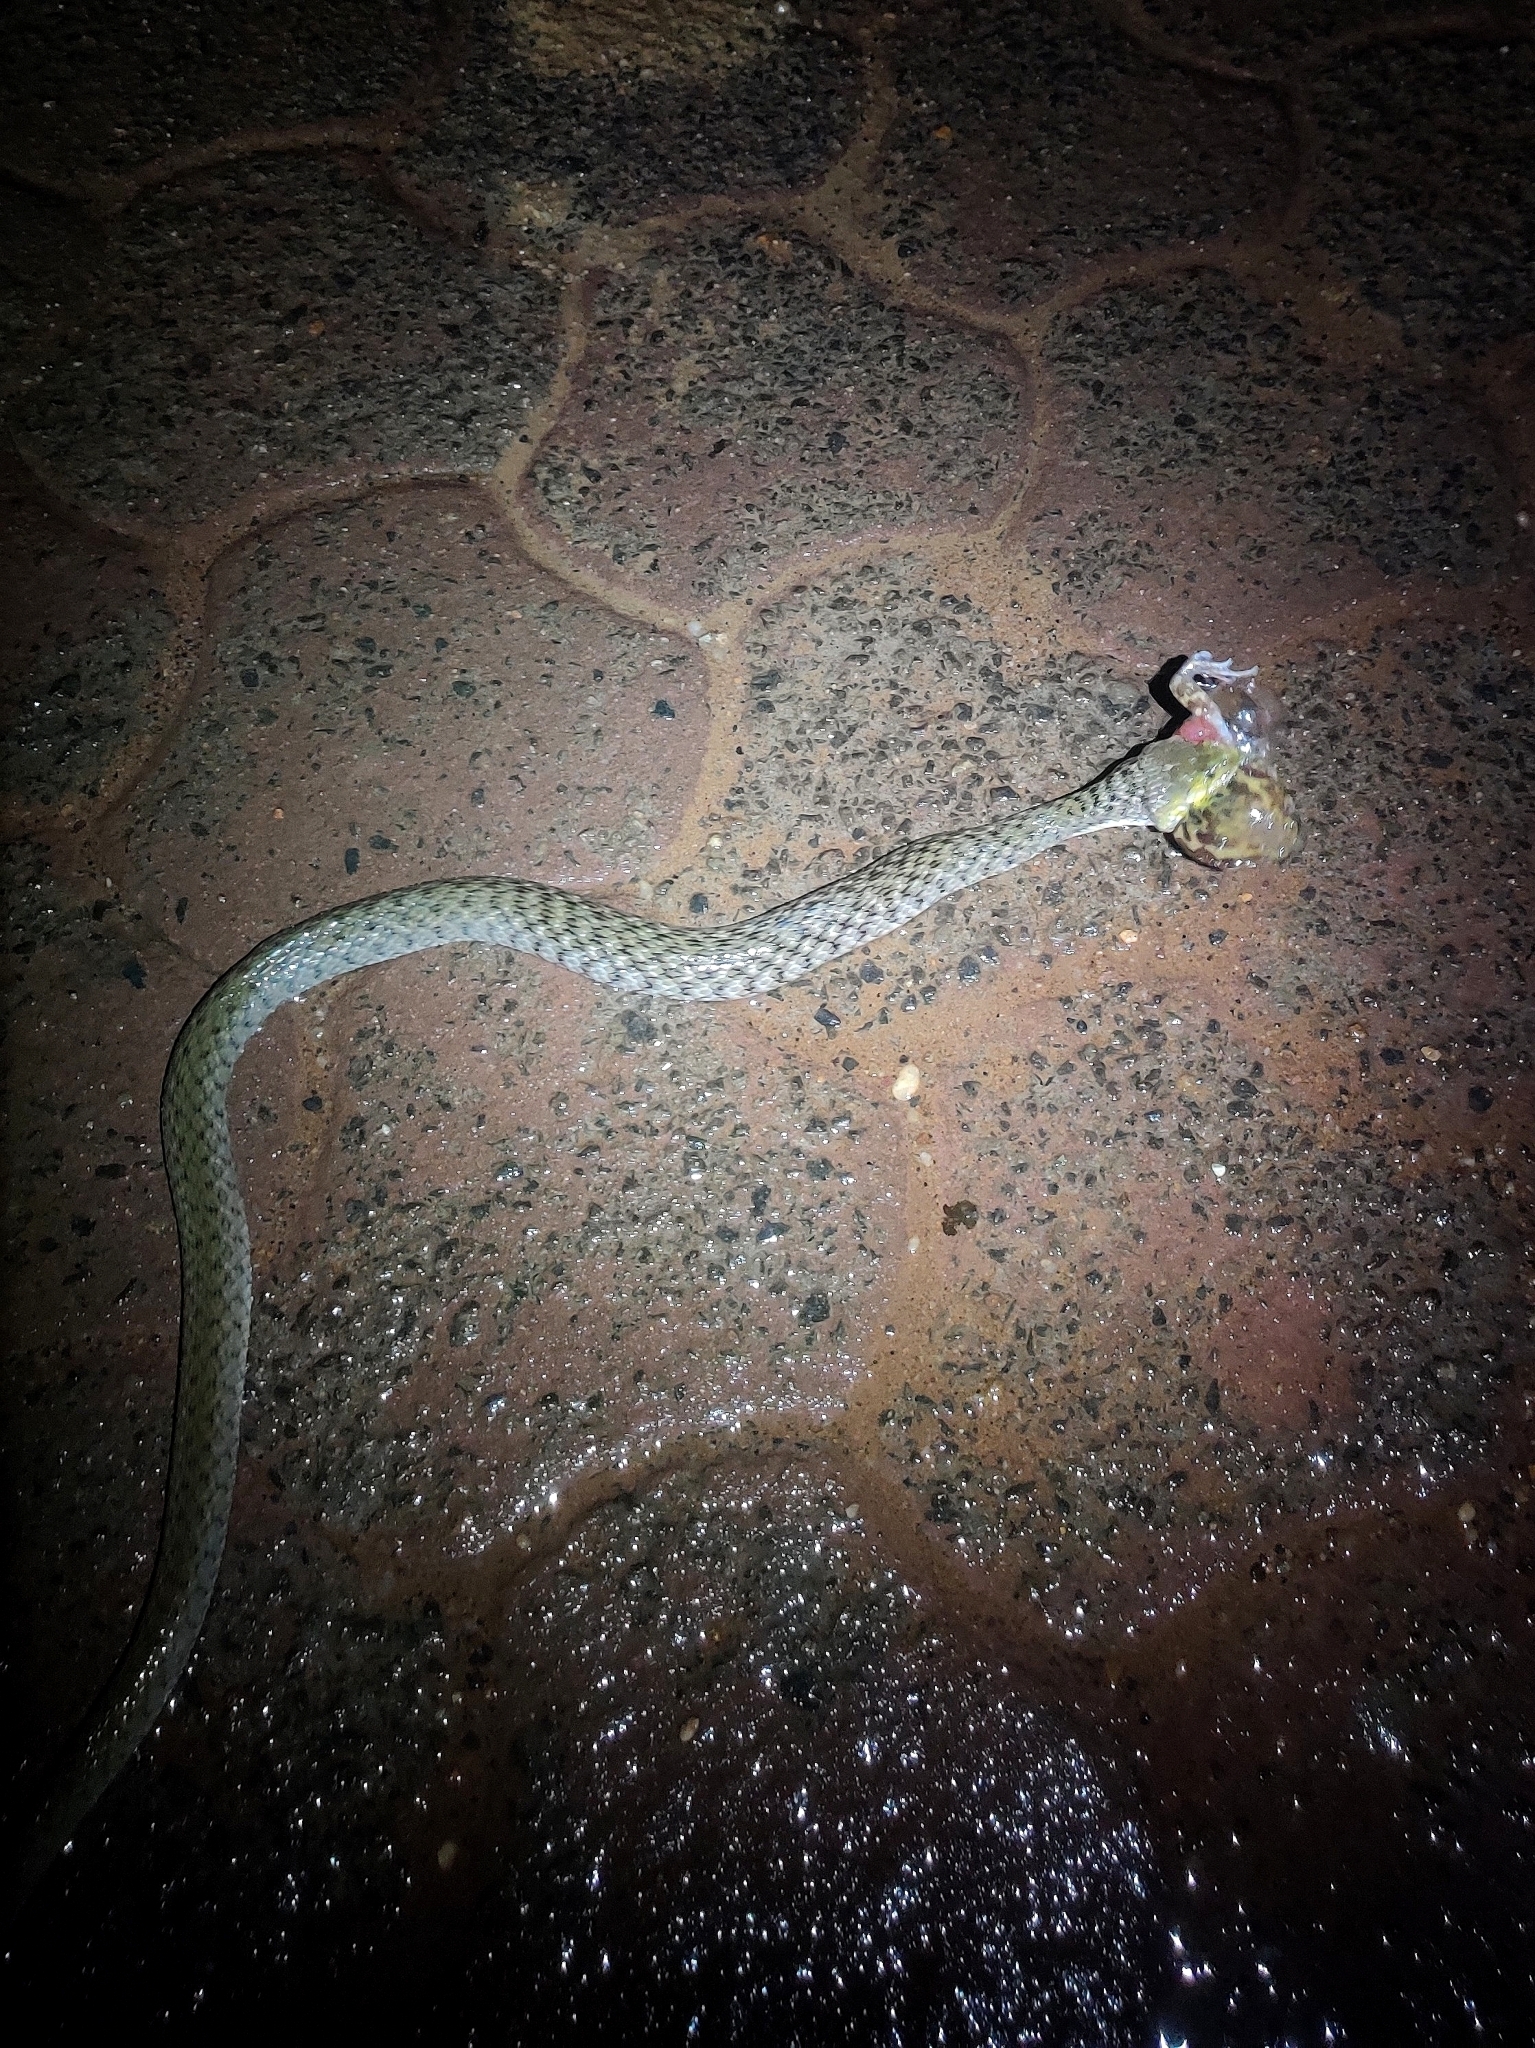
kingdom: Animalia
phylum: Chordata
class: Squamata
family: Colubridae
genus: Fowlea
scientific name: Fowlea piscator
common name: Asiatic water snake
